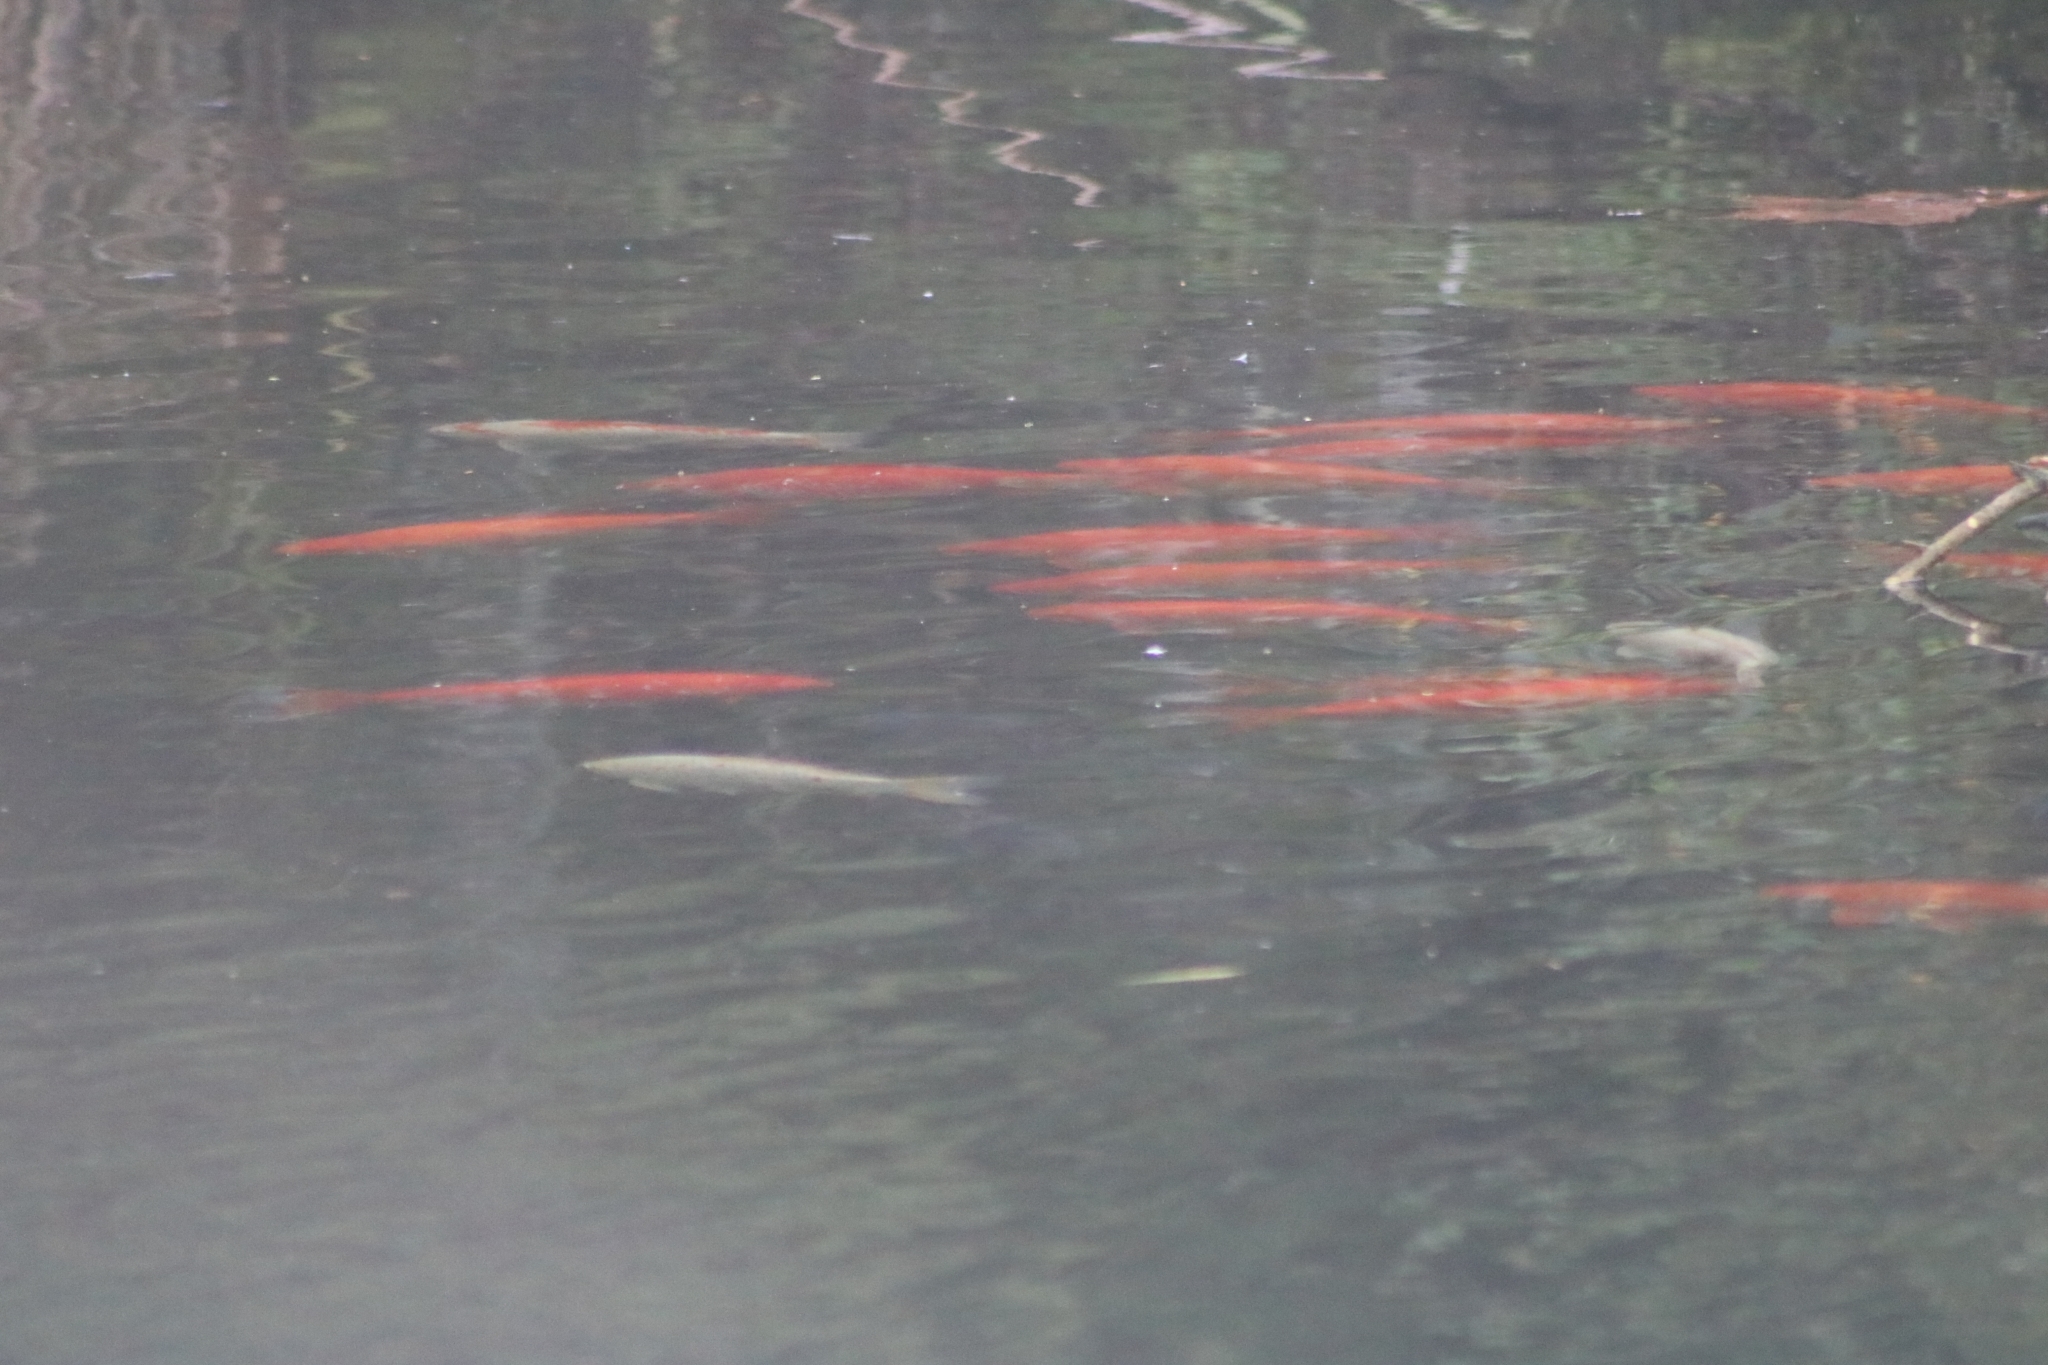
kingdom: Animalia
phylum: Chordata
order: Cypriniformes
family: Cyprinidae
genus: Cyprinus
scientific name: Cyprinus rubrofuscus
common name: Koi
